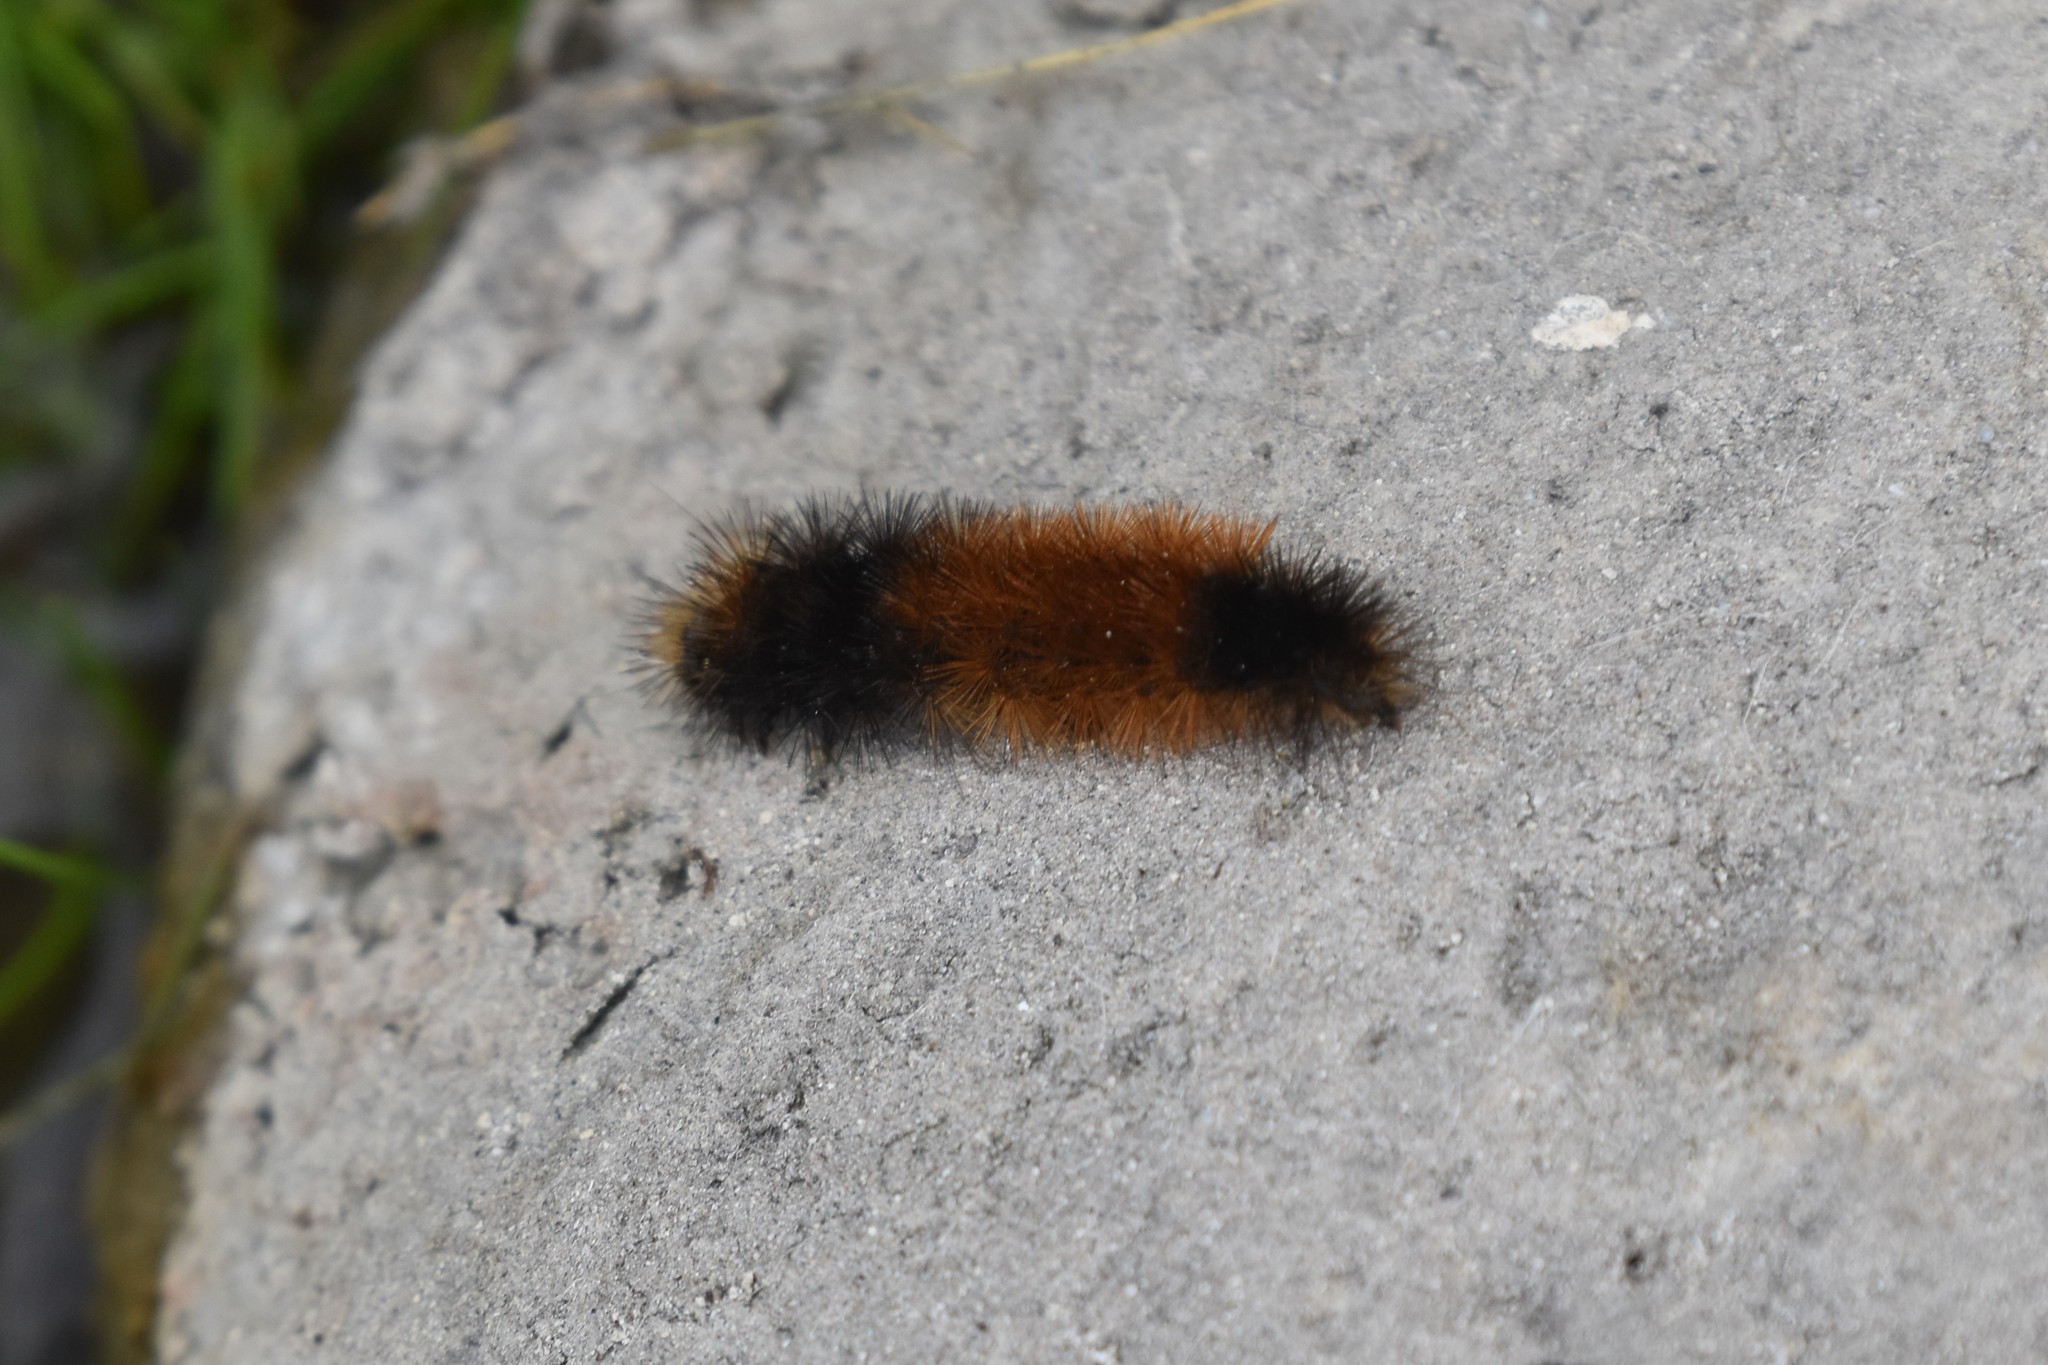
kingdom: Animalia
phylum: Arthropoda
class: Insecta
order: Lepidoptera
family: Erebidae
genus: Pyrrharctia
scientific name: Pyrrharctia isabella
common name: Isabella tiger moth
